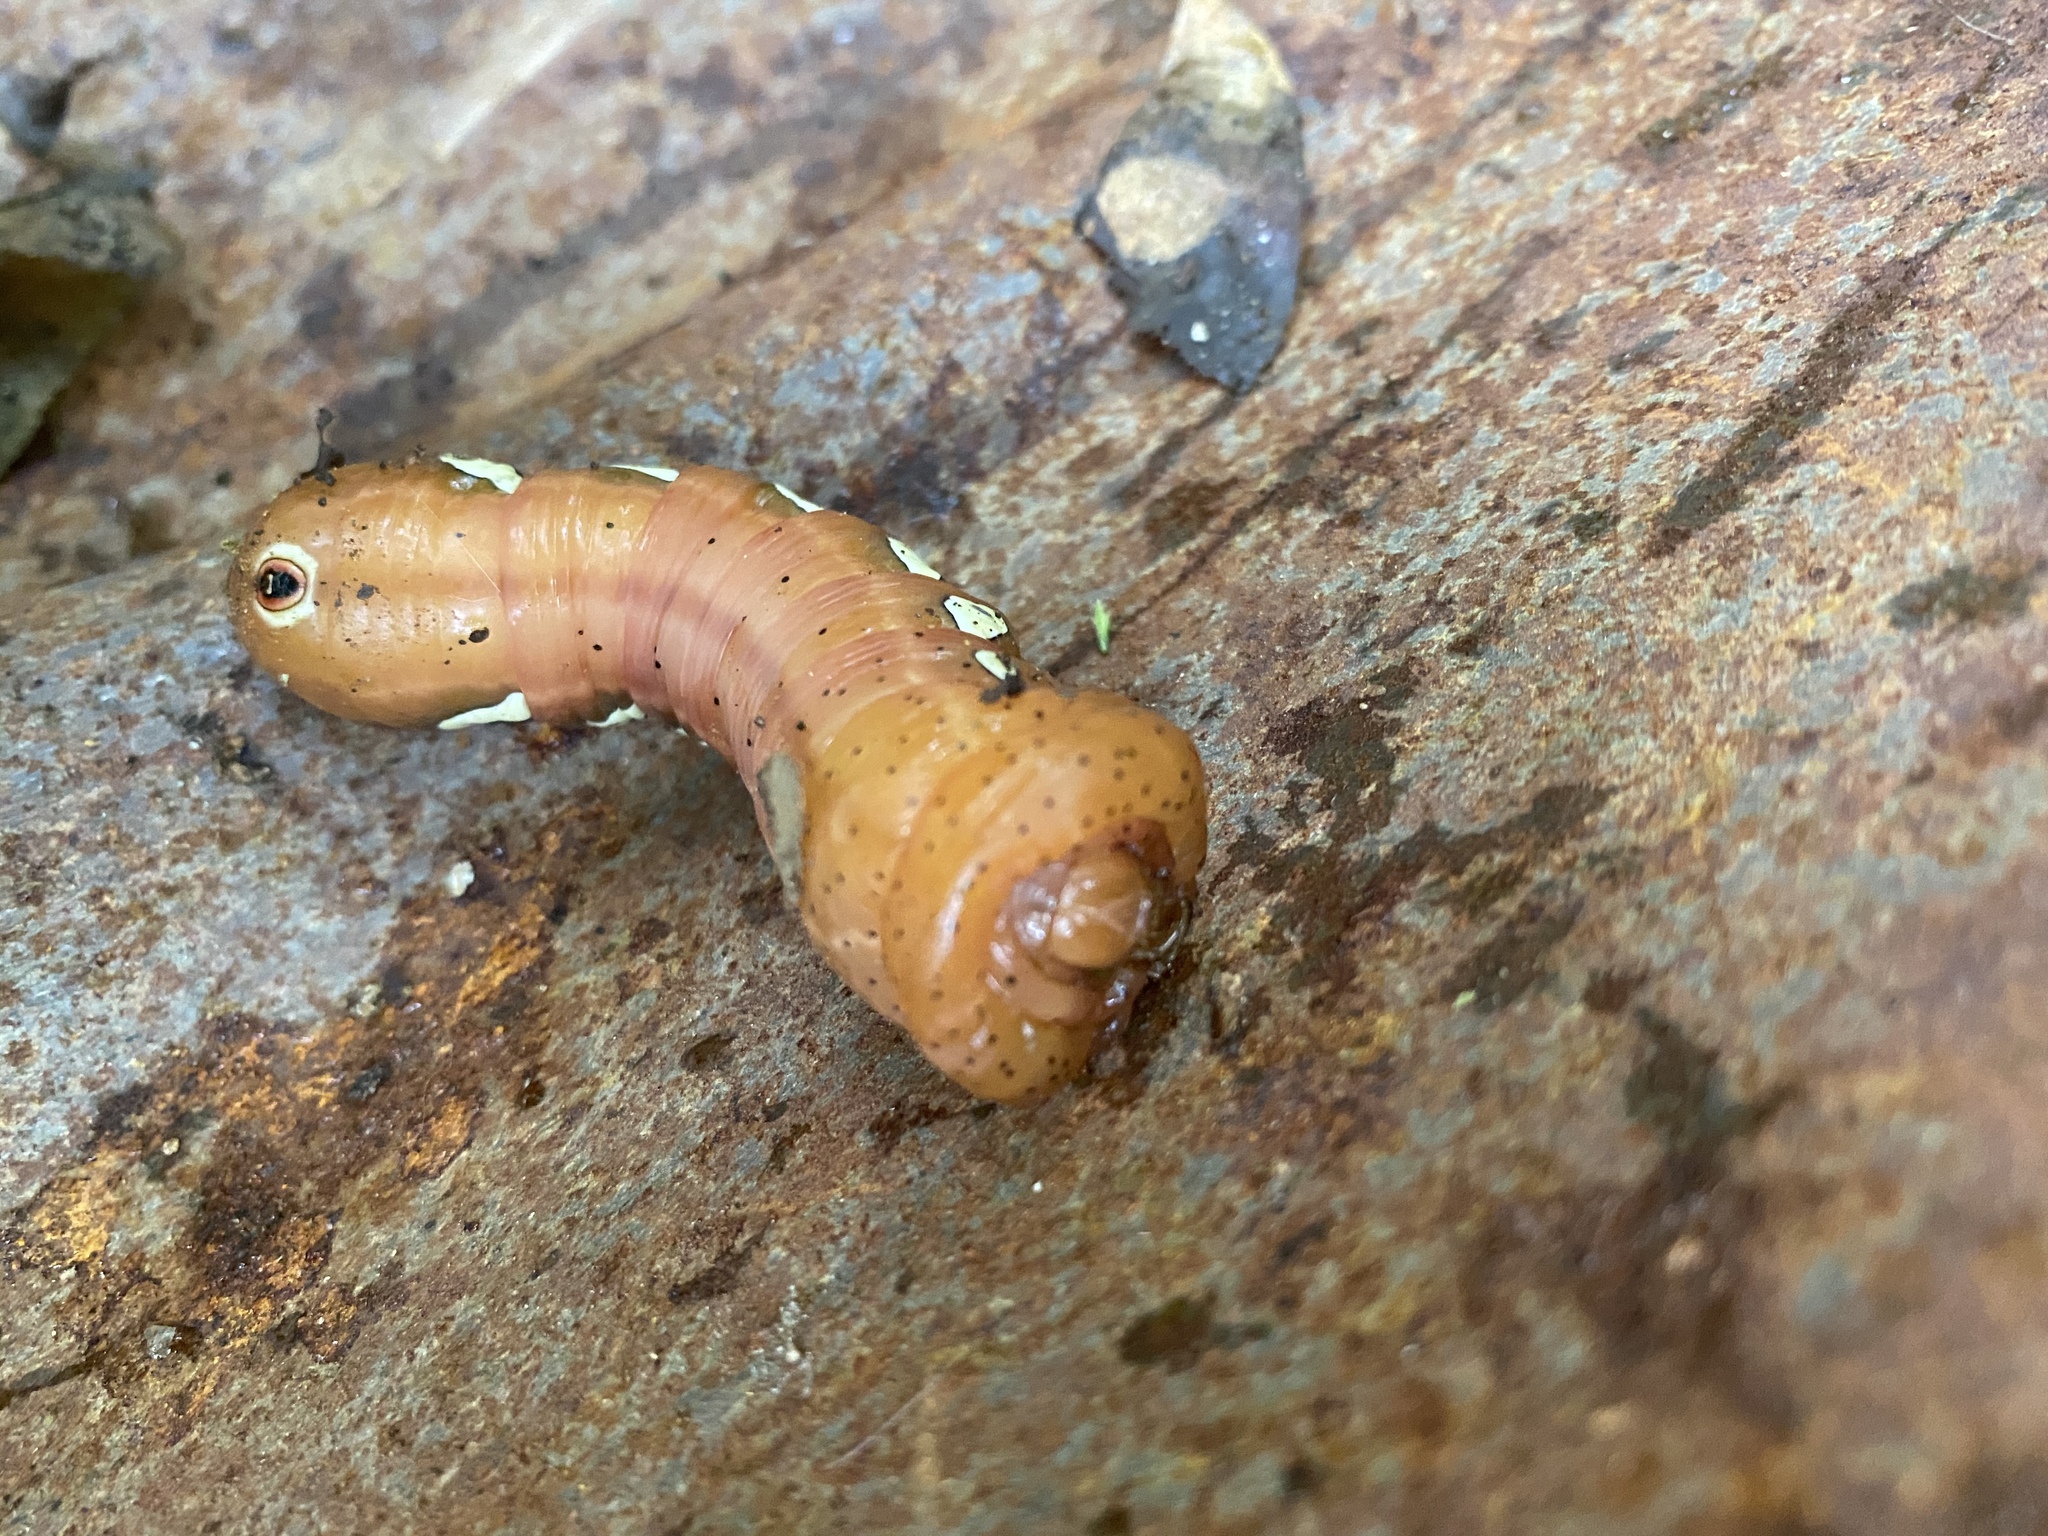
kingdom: Animalia
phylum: Arthropoda
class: Insecta
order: Lepidoptera
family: Sphingidae
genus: Eumorpha
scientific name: Eumorpha pandorus
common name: Pandora sphinx
